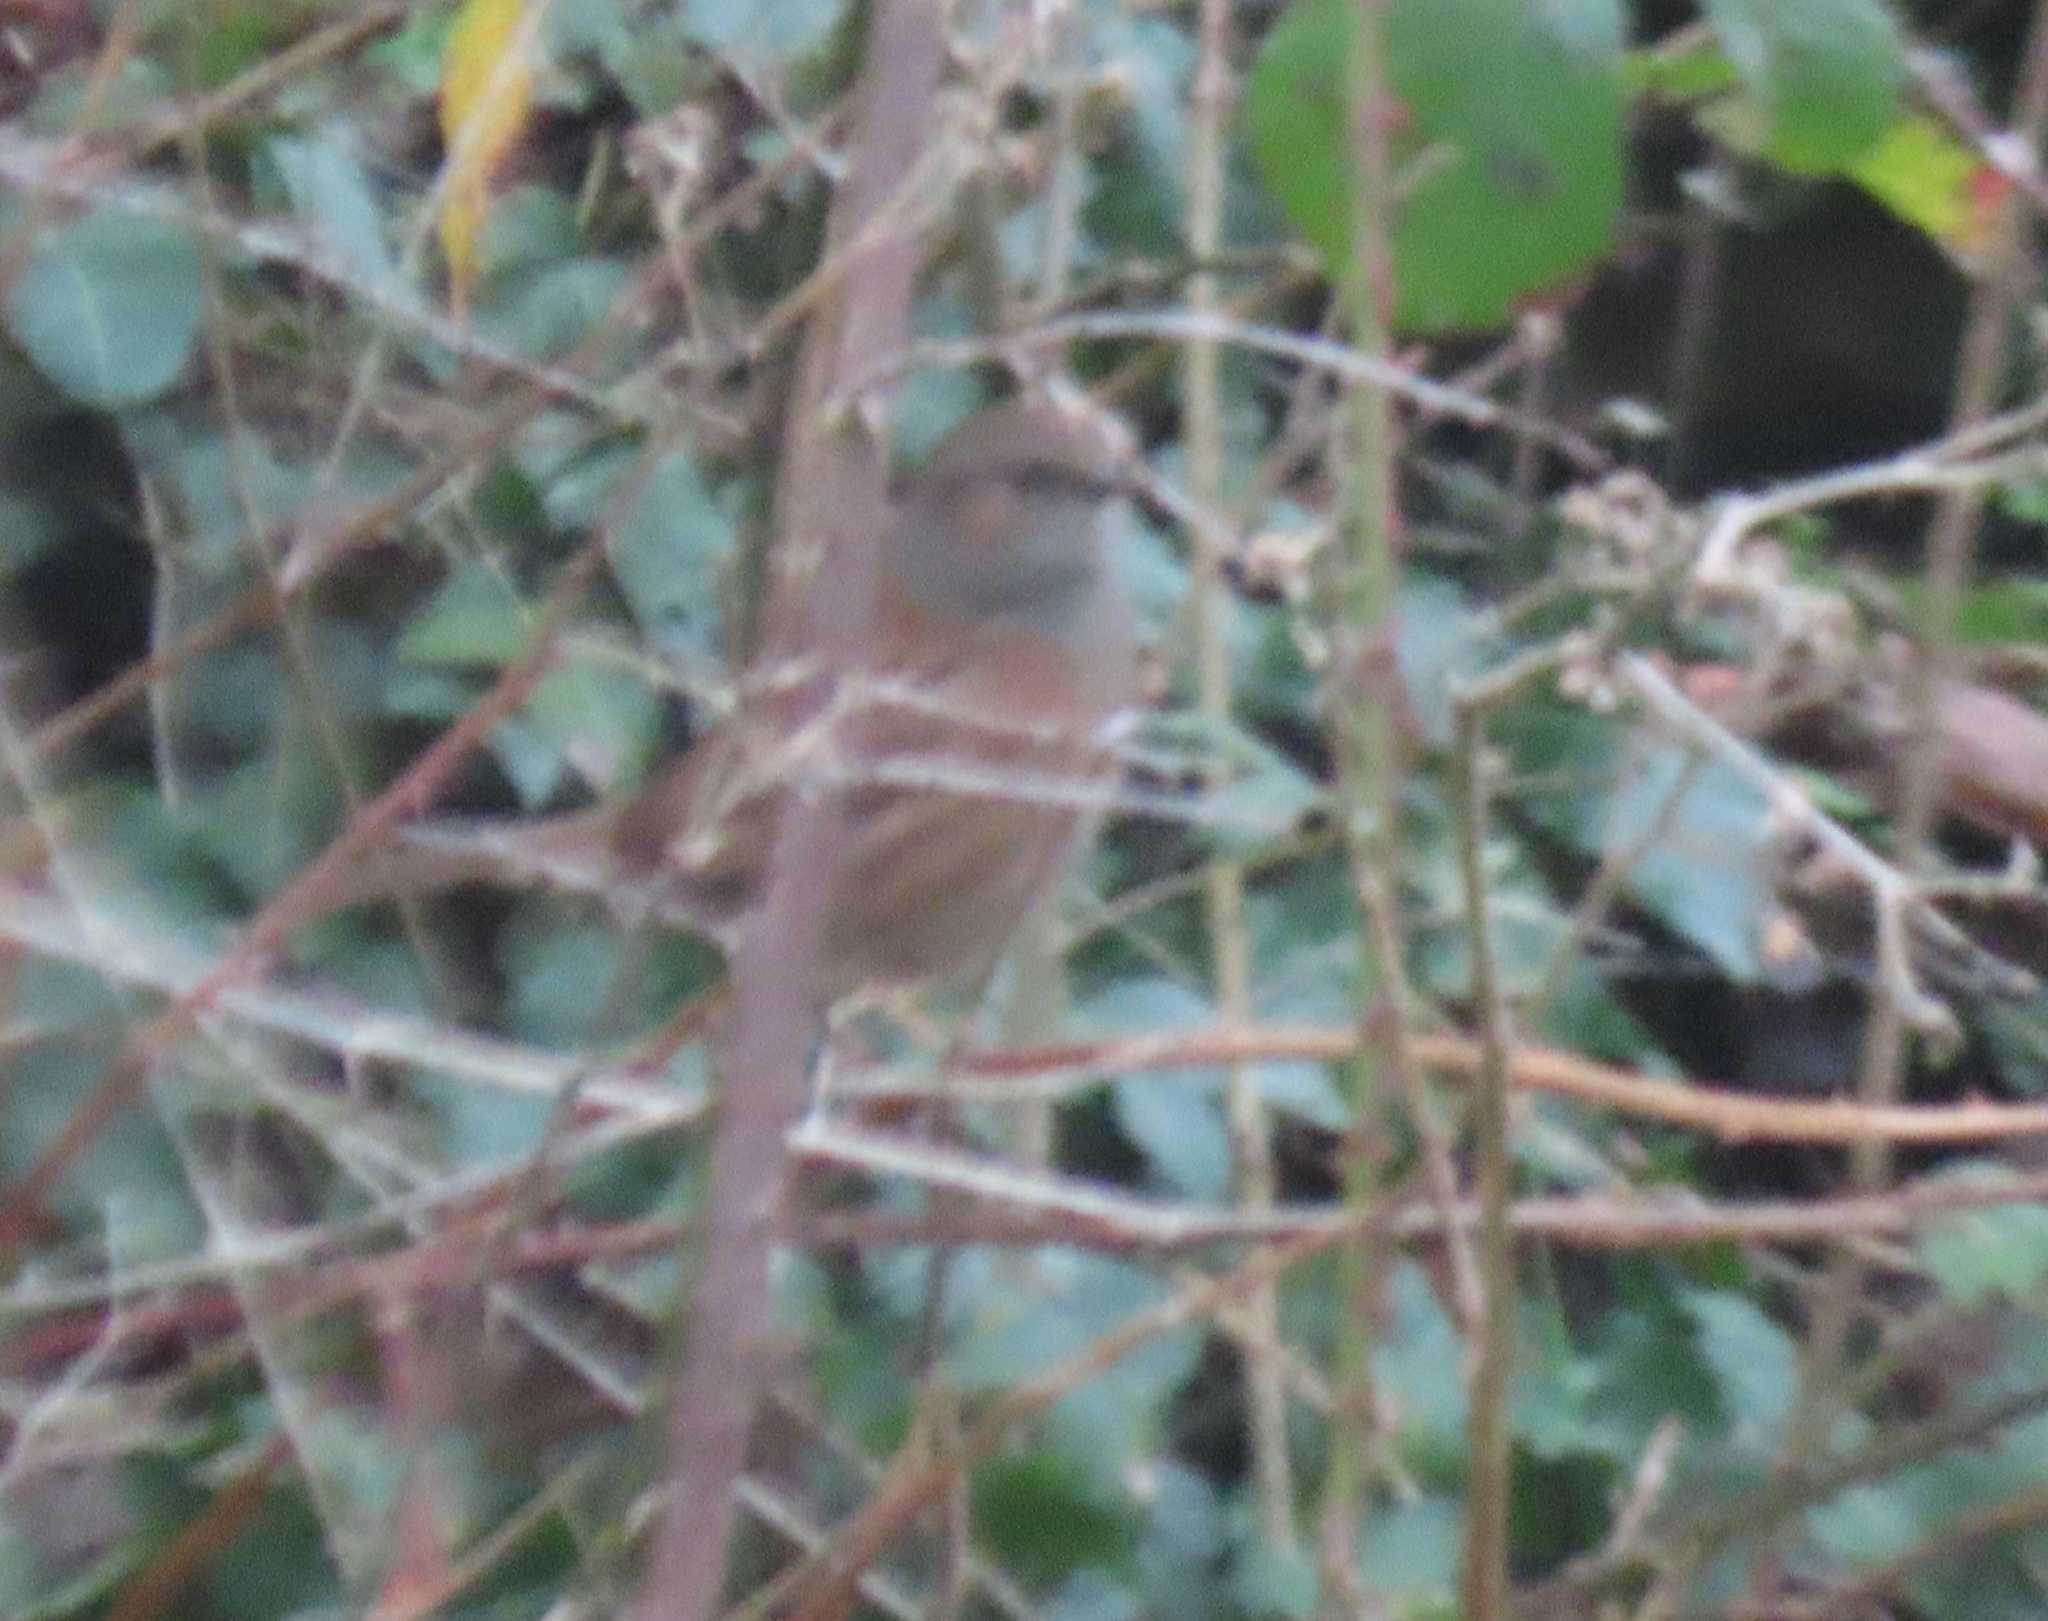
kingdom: Animalia
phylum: Chordata
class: Aves
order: Passeriformes
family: Prunellidae
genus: Prunella
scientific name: Prunella modularis
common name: Dunnock
